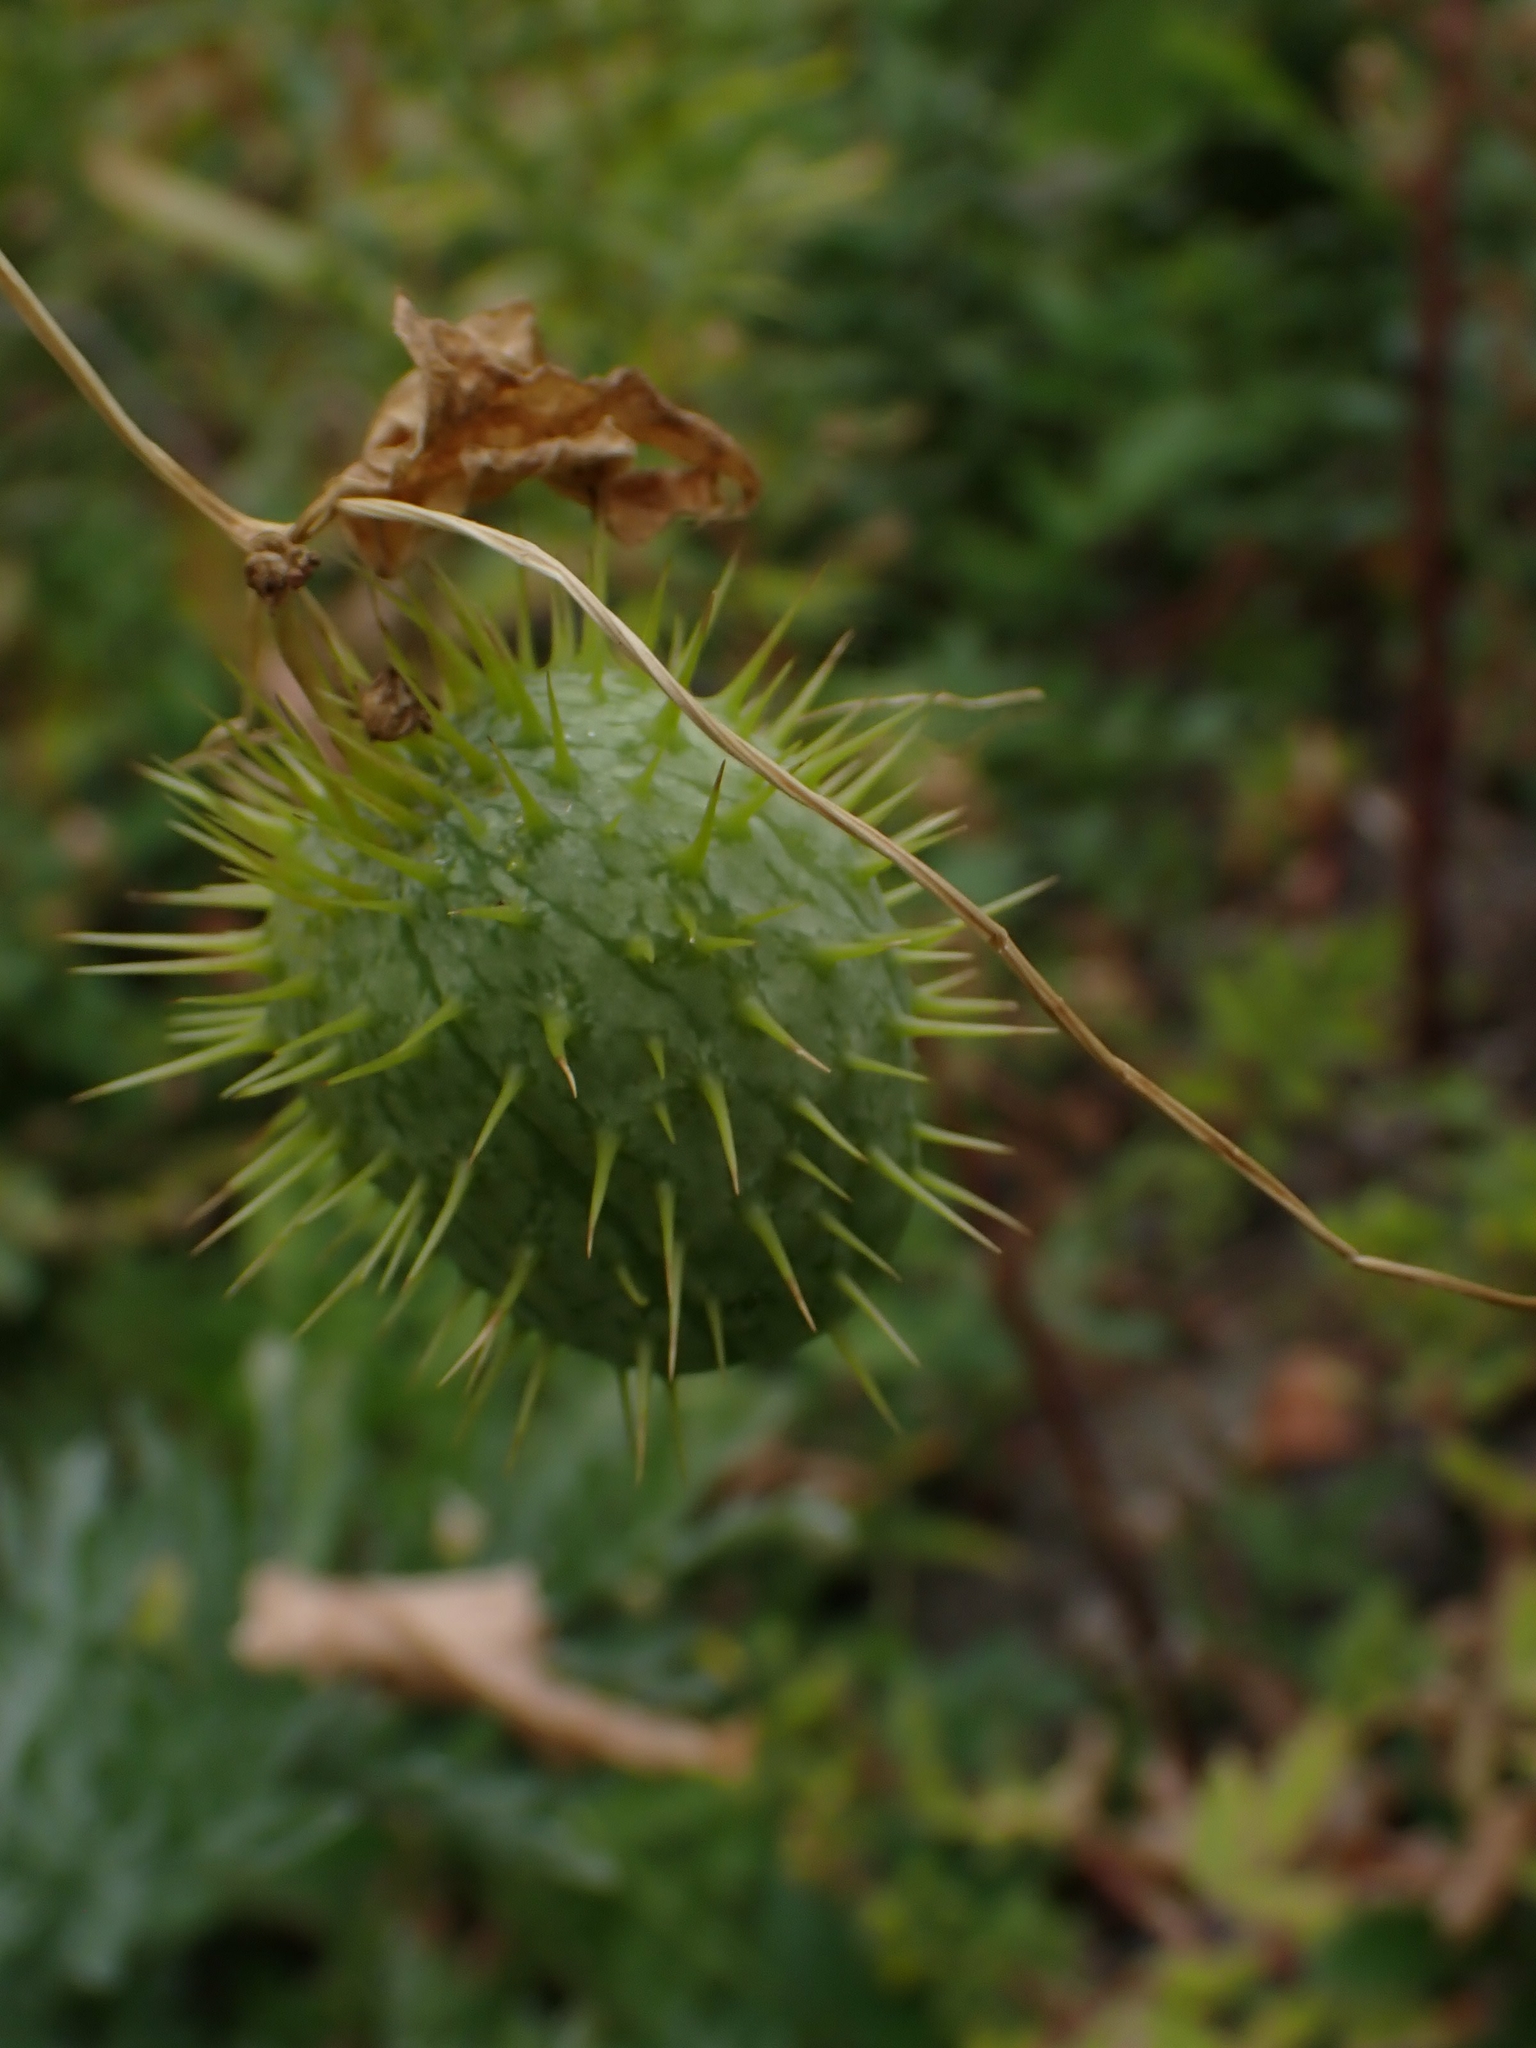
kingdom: Plantae
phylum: Tracheophyta
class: Magnoliopsida
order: Cucurbitales
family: Cucurbitaceae
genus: Echinocystis
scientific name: Echinocystis lobata
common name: Wild cucumber
